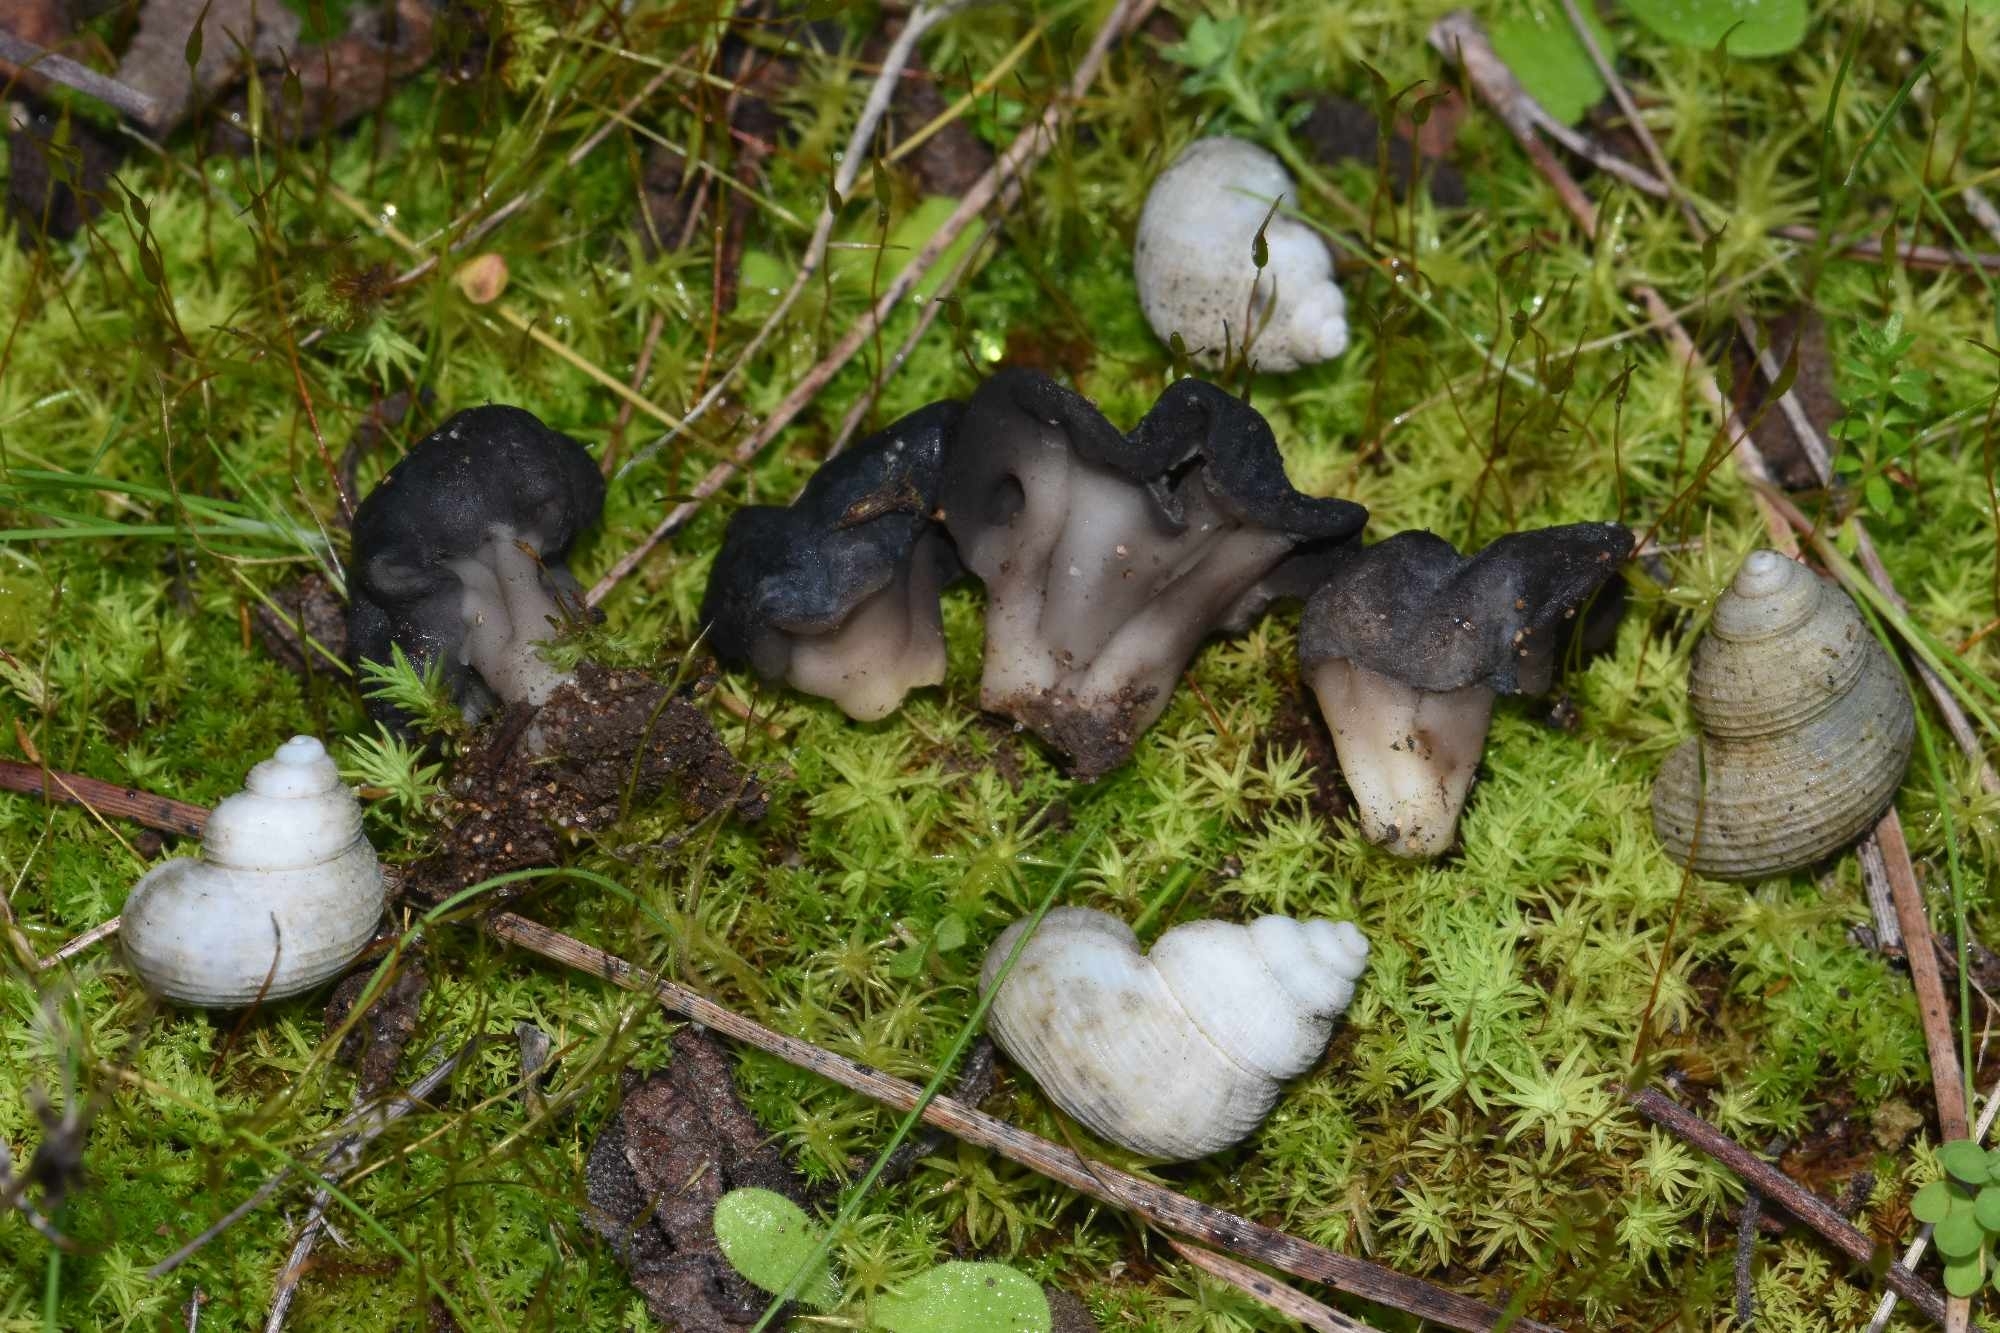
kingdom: Fungi
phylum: Ascomycota
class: Pezizomycetes
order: Pezizales
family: Helvellaceae
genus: Helvella
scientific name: Helvella semiobruta
